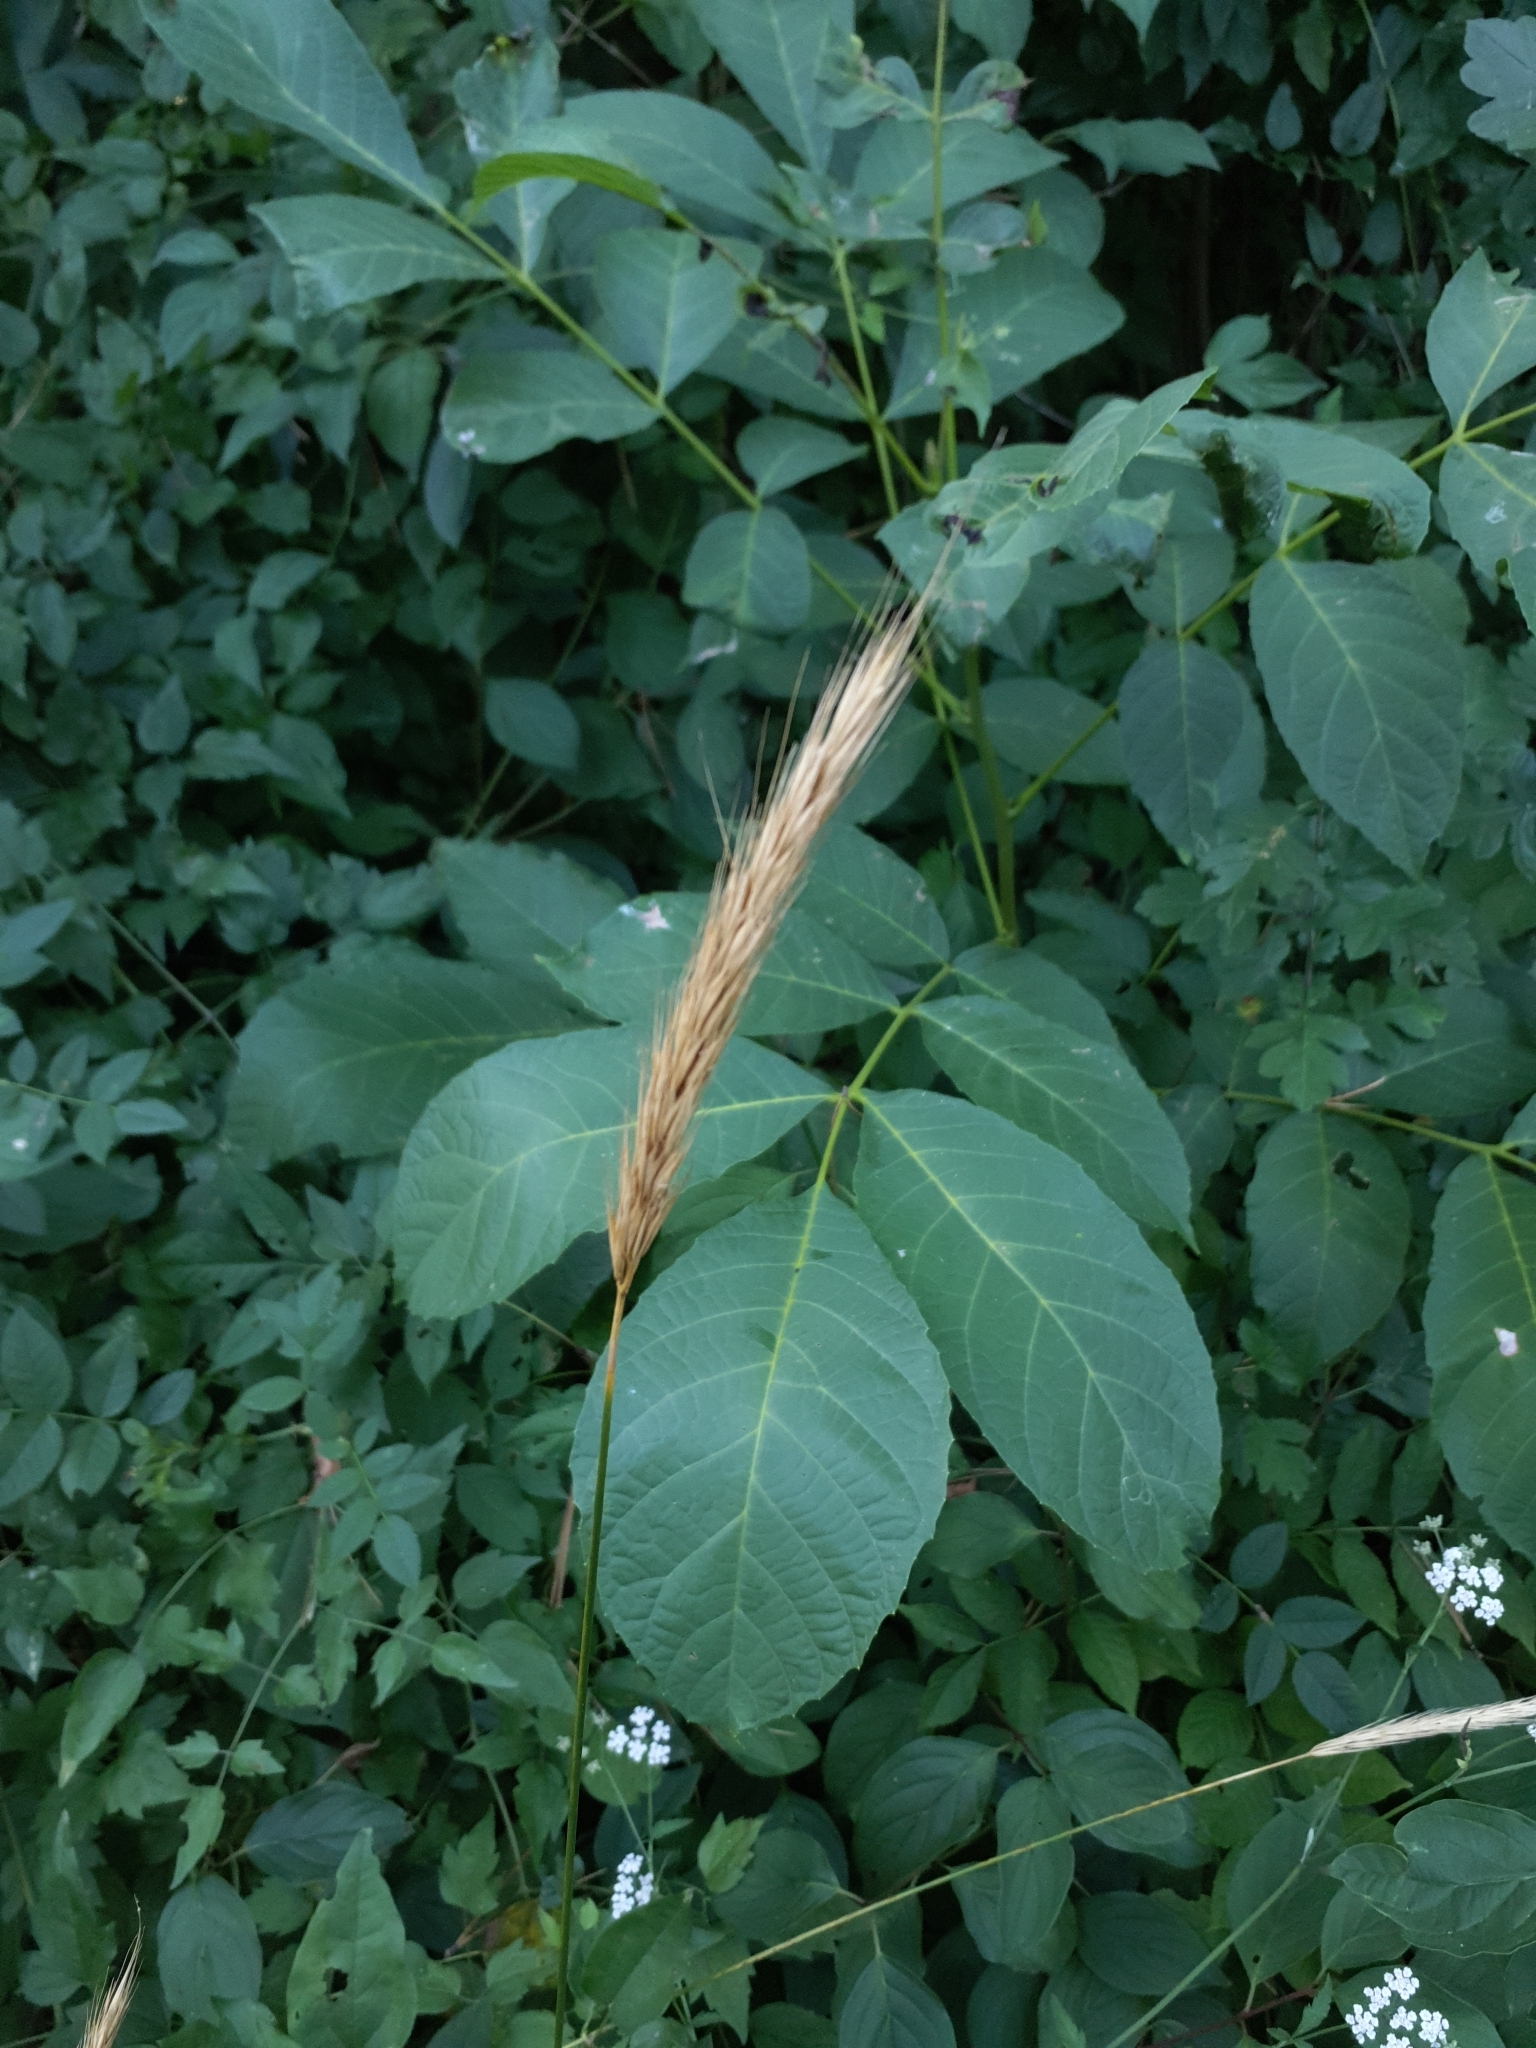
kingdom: Plantae
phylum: Tracheophyta
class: Liliopsida
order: Poales
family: Poaceae
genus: Hordelymus
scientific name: Hordelymus europaeus
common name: Wood-barley
